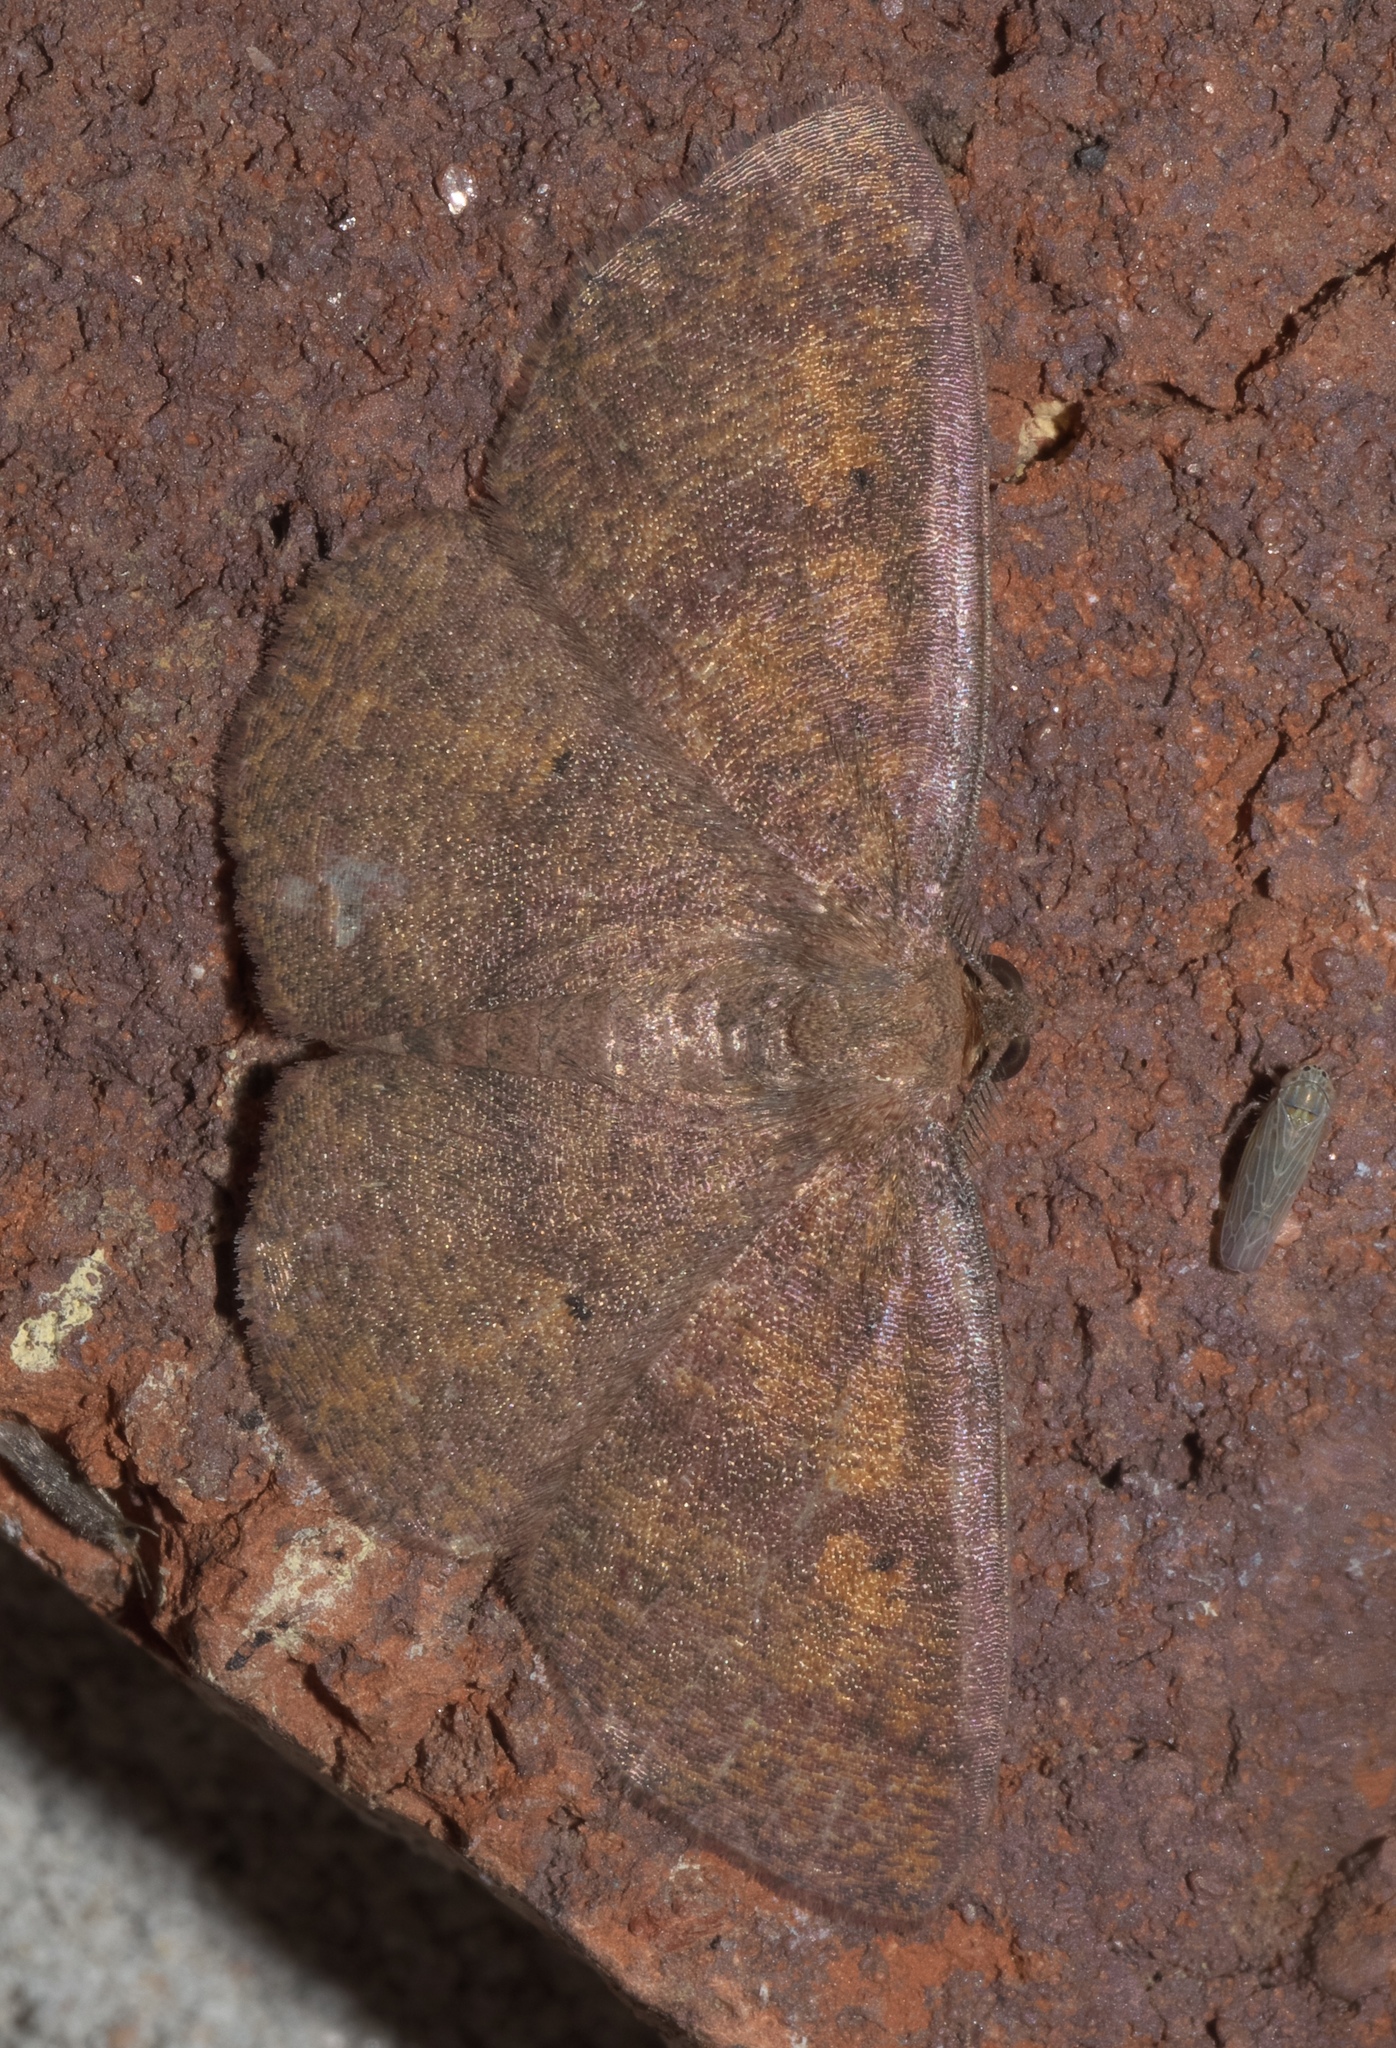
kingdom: Animalia
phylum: Arthropoda
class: Insecta
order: Lepidoptera
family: Geometridae
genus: Ilexia
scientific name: Ilexia intractata
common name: Black-dotted ruddy moth
